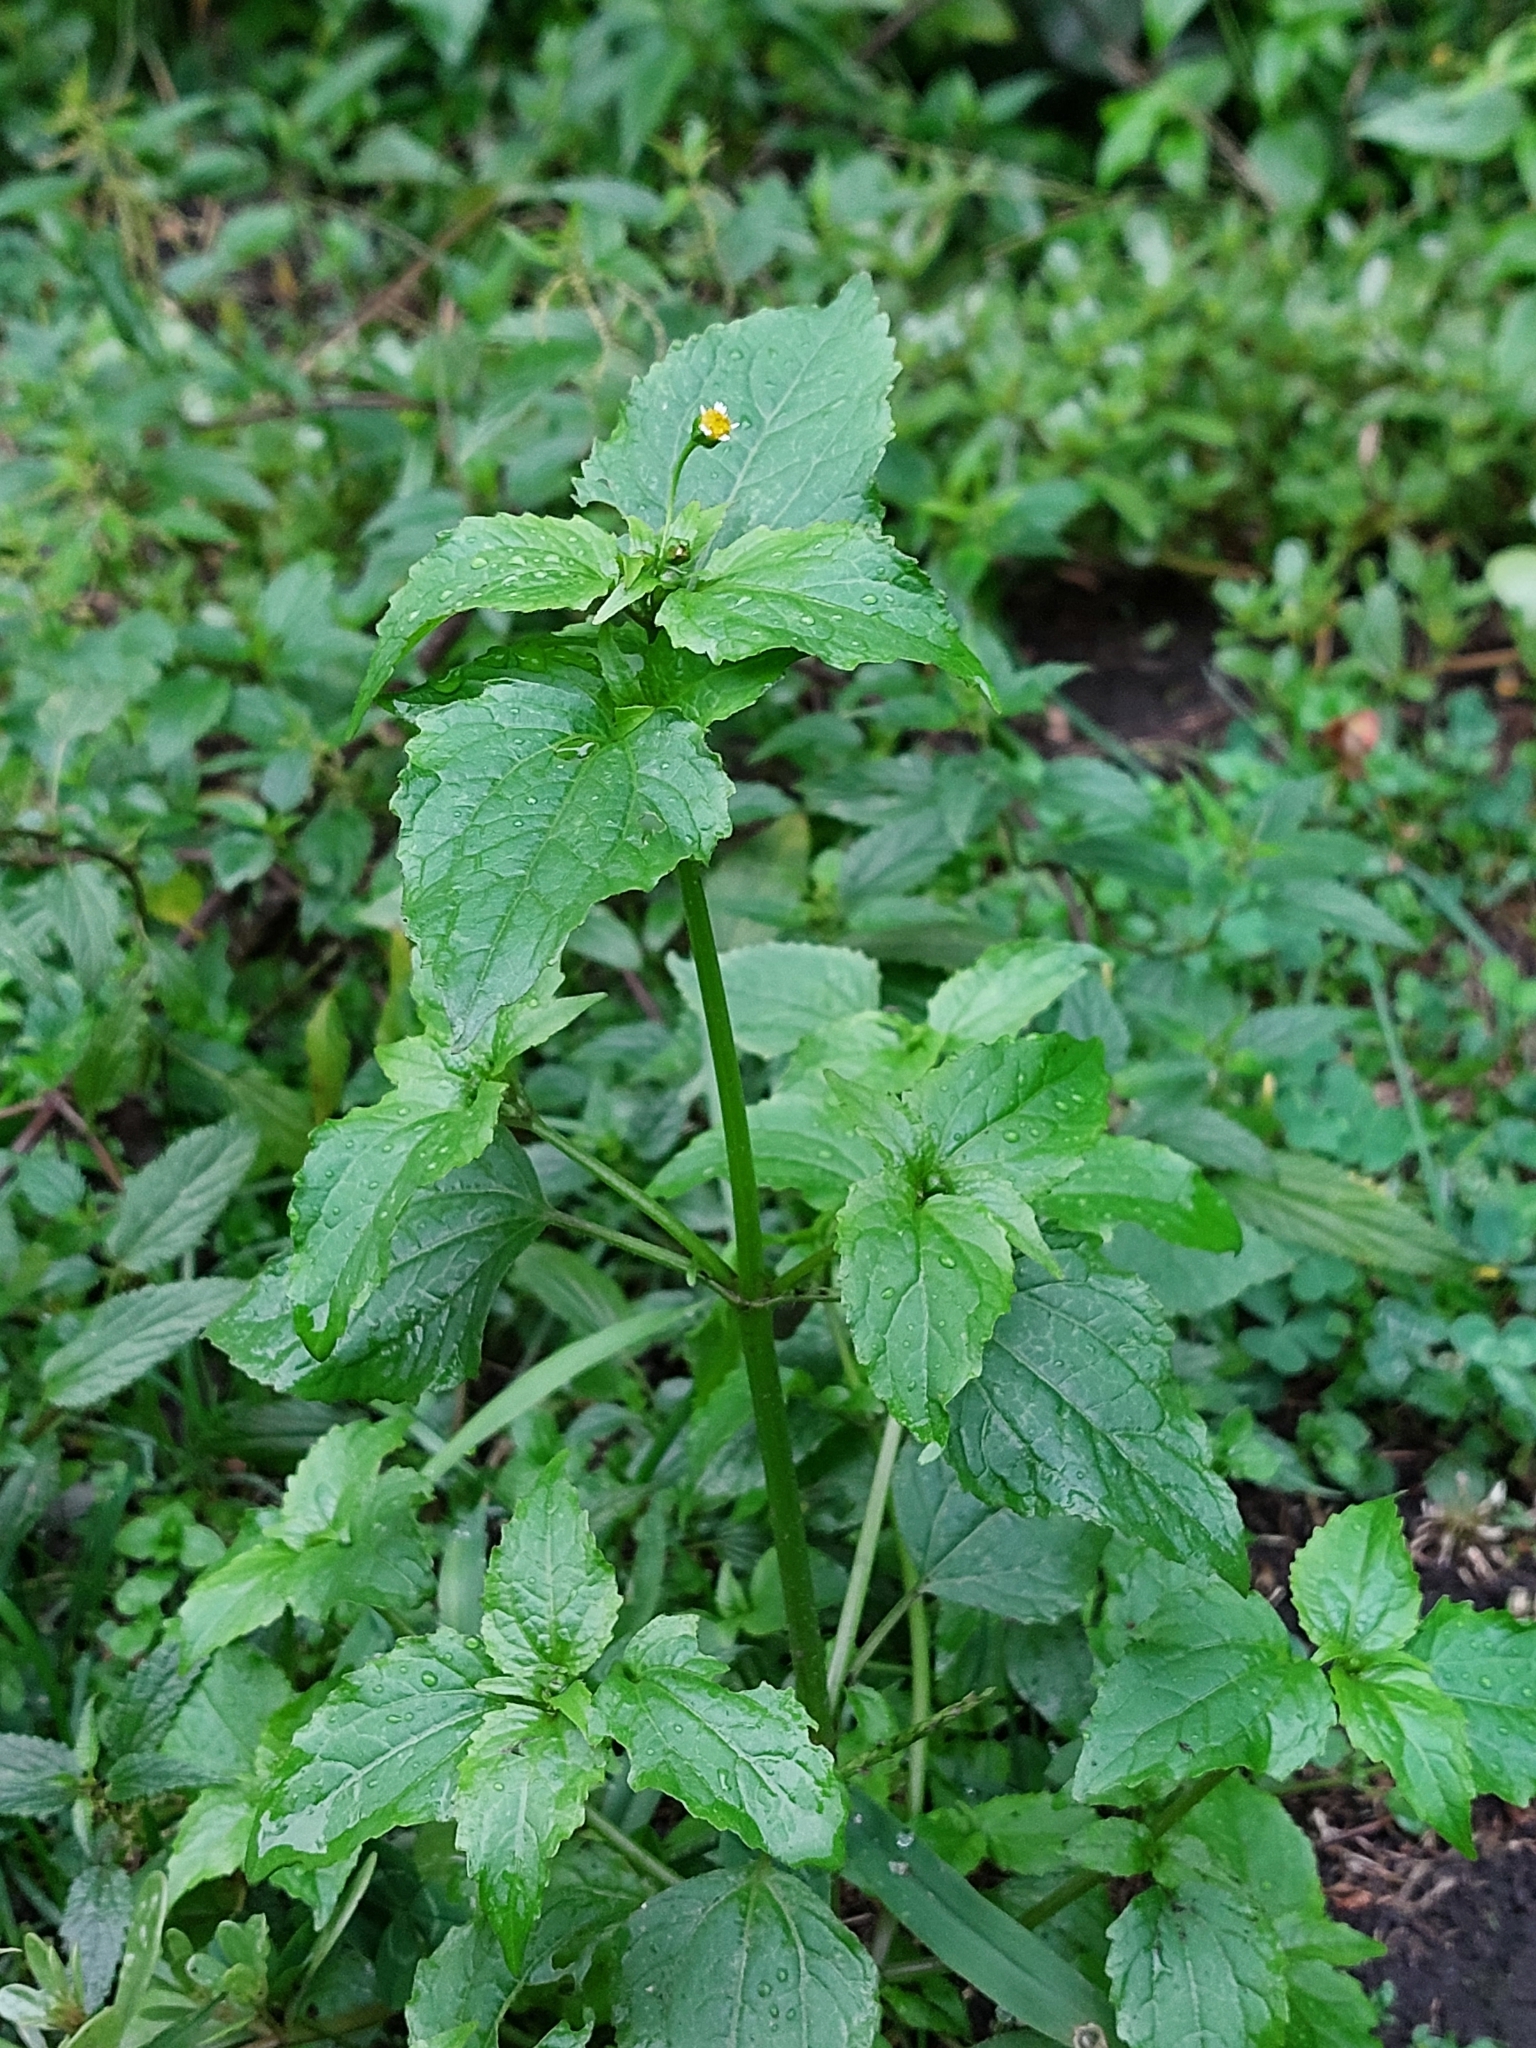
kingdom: Plantae
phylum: Tracheophyta
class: Magnoliopsida
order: Asterales
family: Asteraceae
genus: Galinsoga
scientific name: Galinsoga parviflora
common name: Gallant soldier
